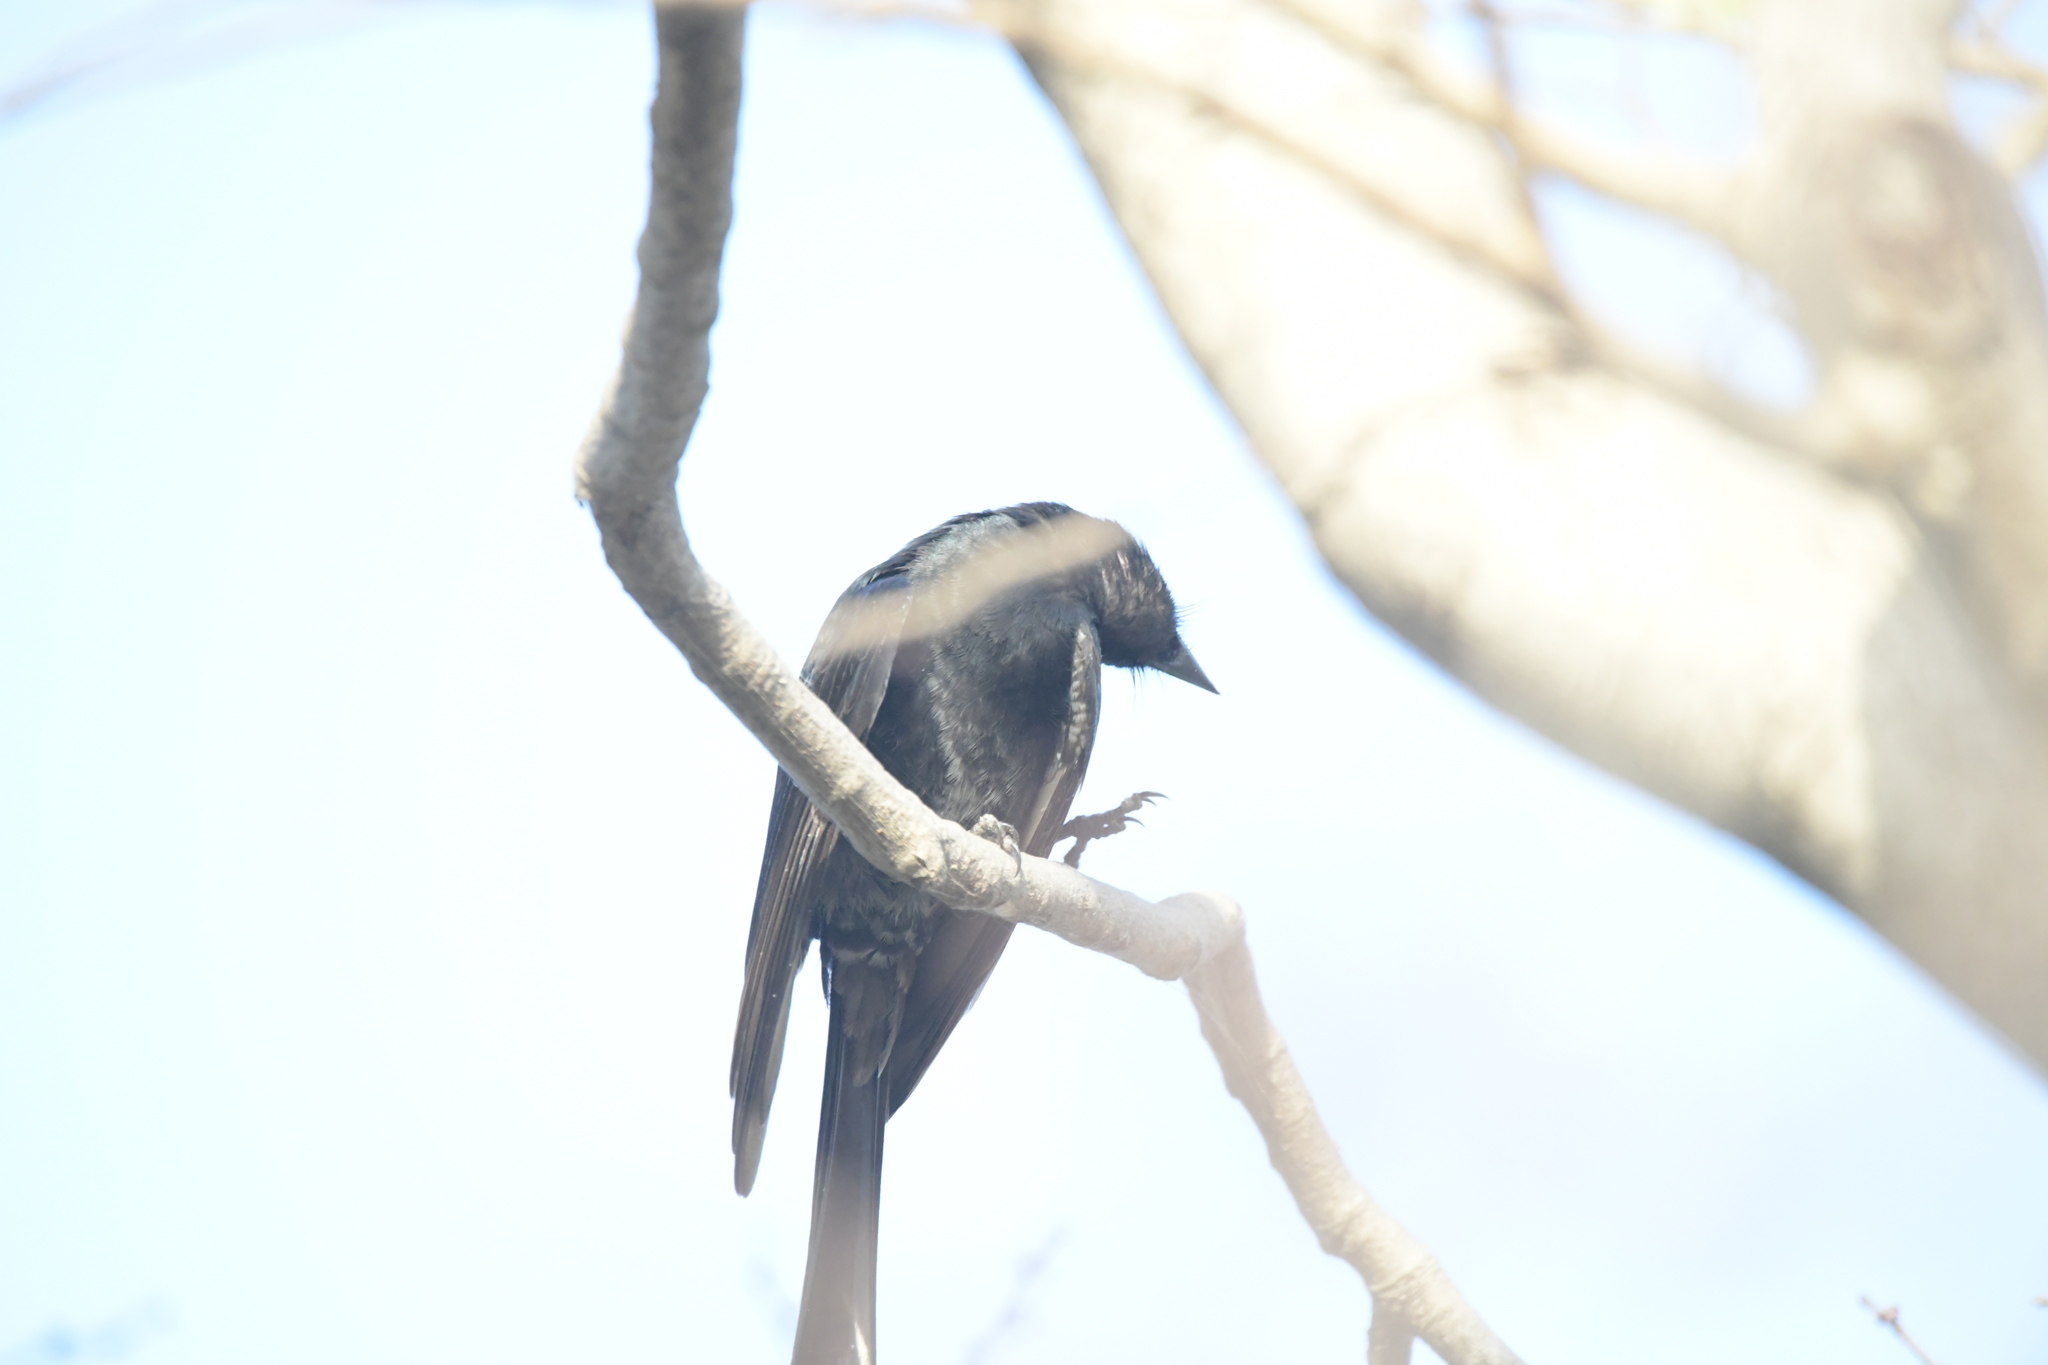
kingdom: Animalia
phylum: Chordata
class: Aves
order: Passeriformes
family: Dicruridae
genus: Dicrurus
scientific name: Dicrurus macrocercus
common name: Black drongo
